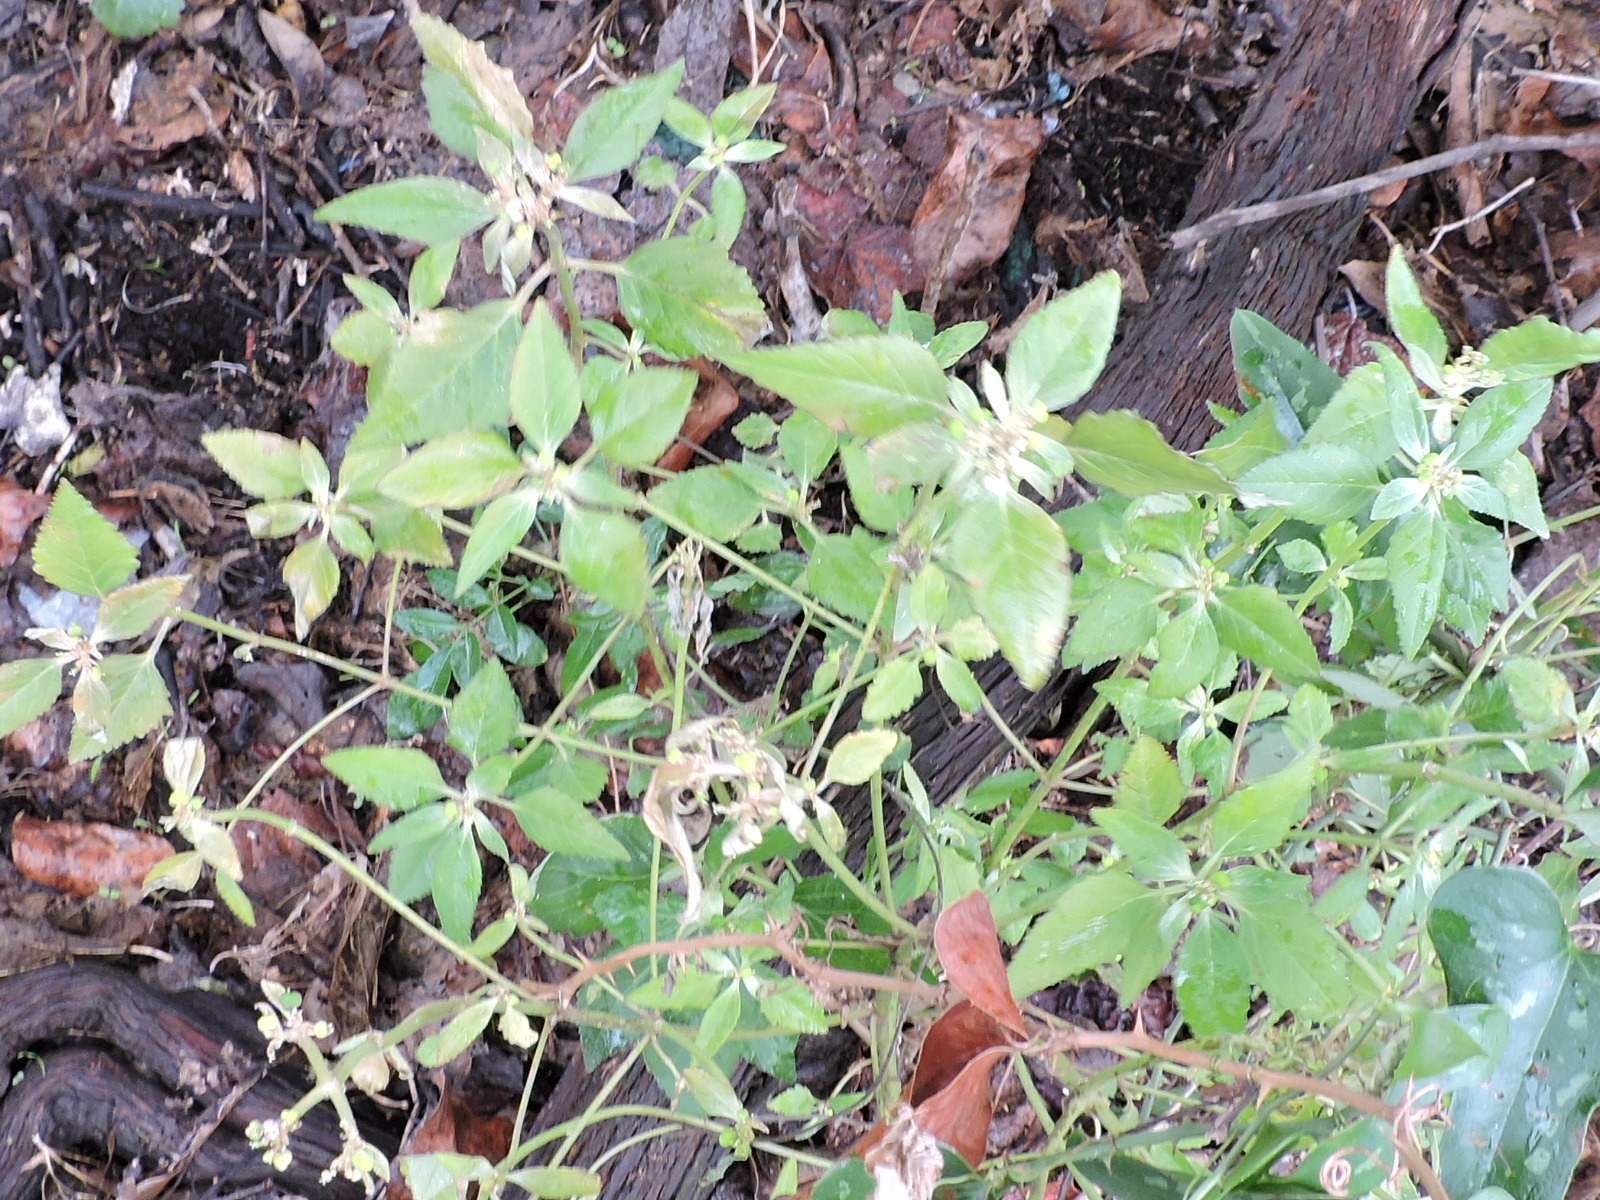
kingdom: Plantae
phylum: Tracheophyta
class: Magnoliopsida
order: Malpighiales
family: Euphorbiaceae
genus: Euphorbia
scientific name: Euphorbia dentata
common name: Dentate spurge
